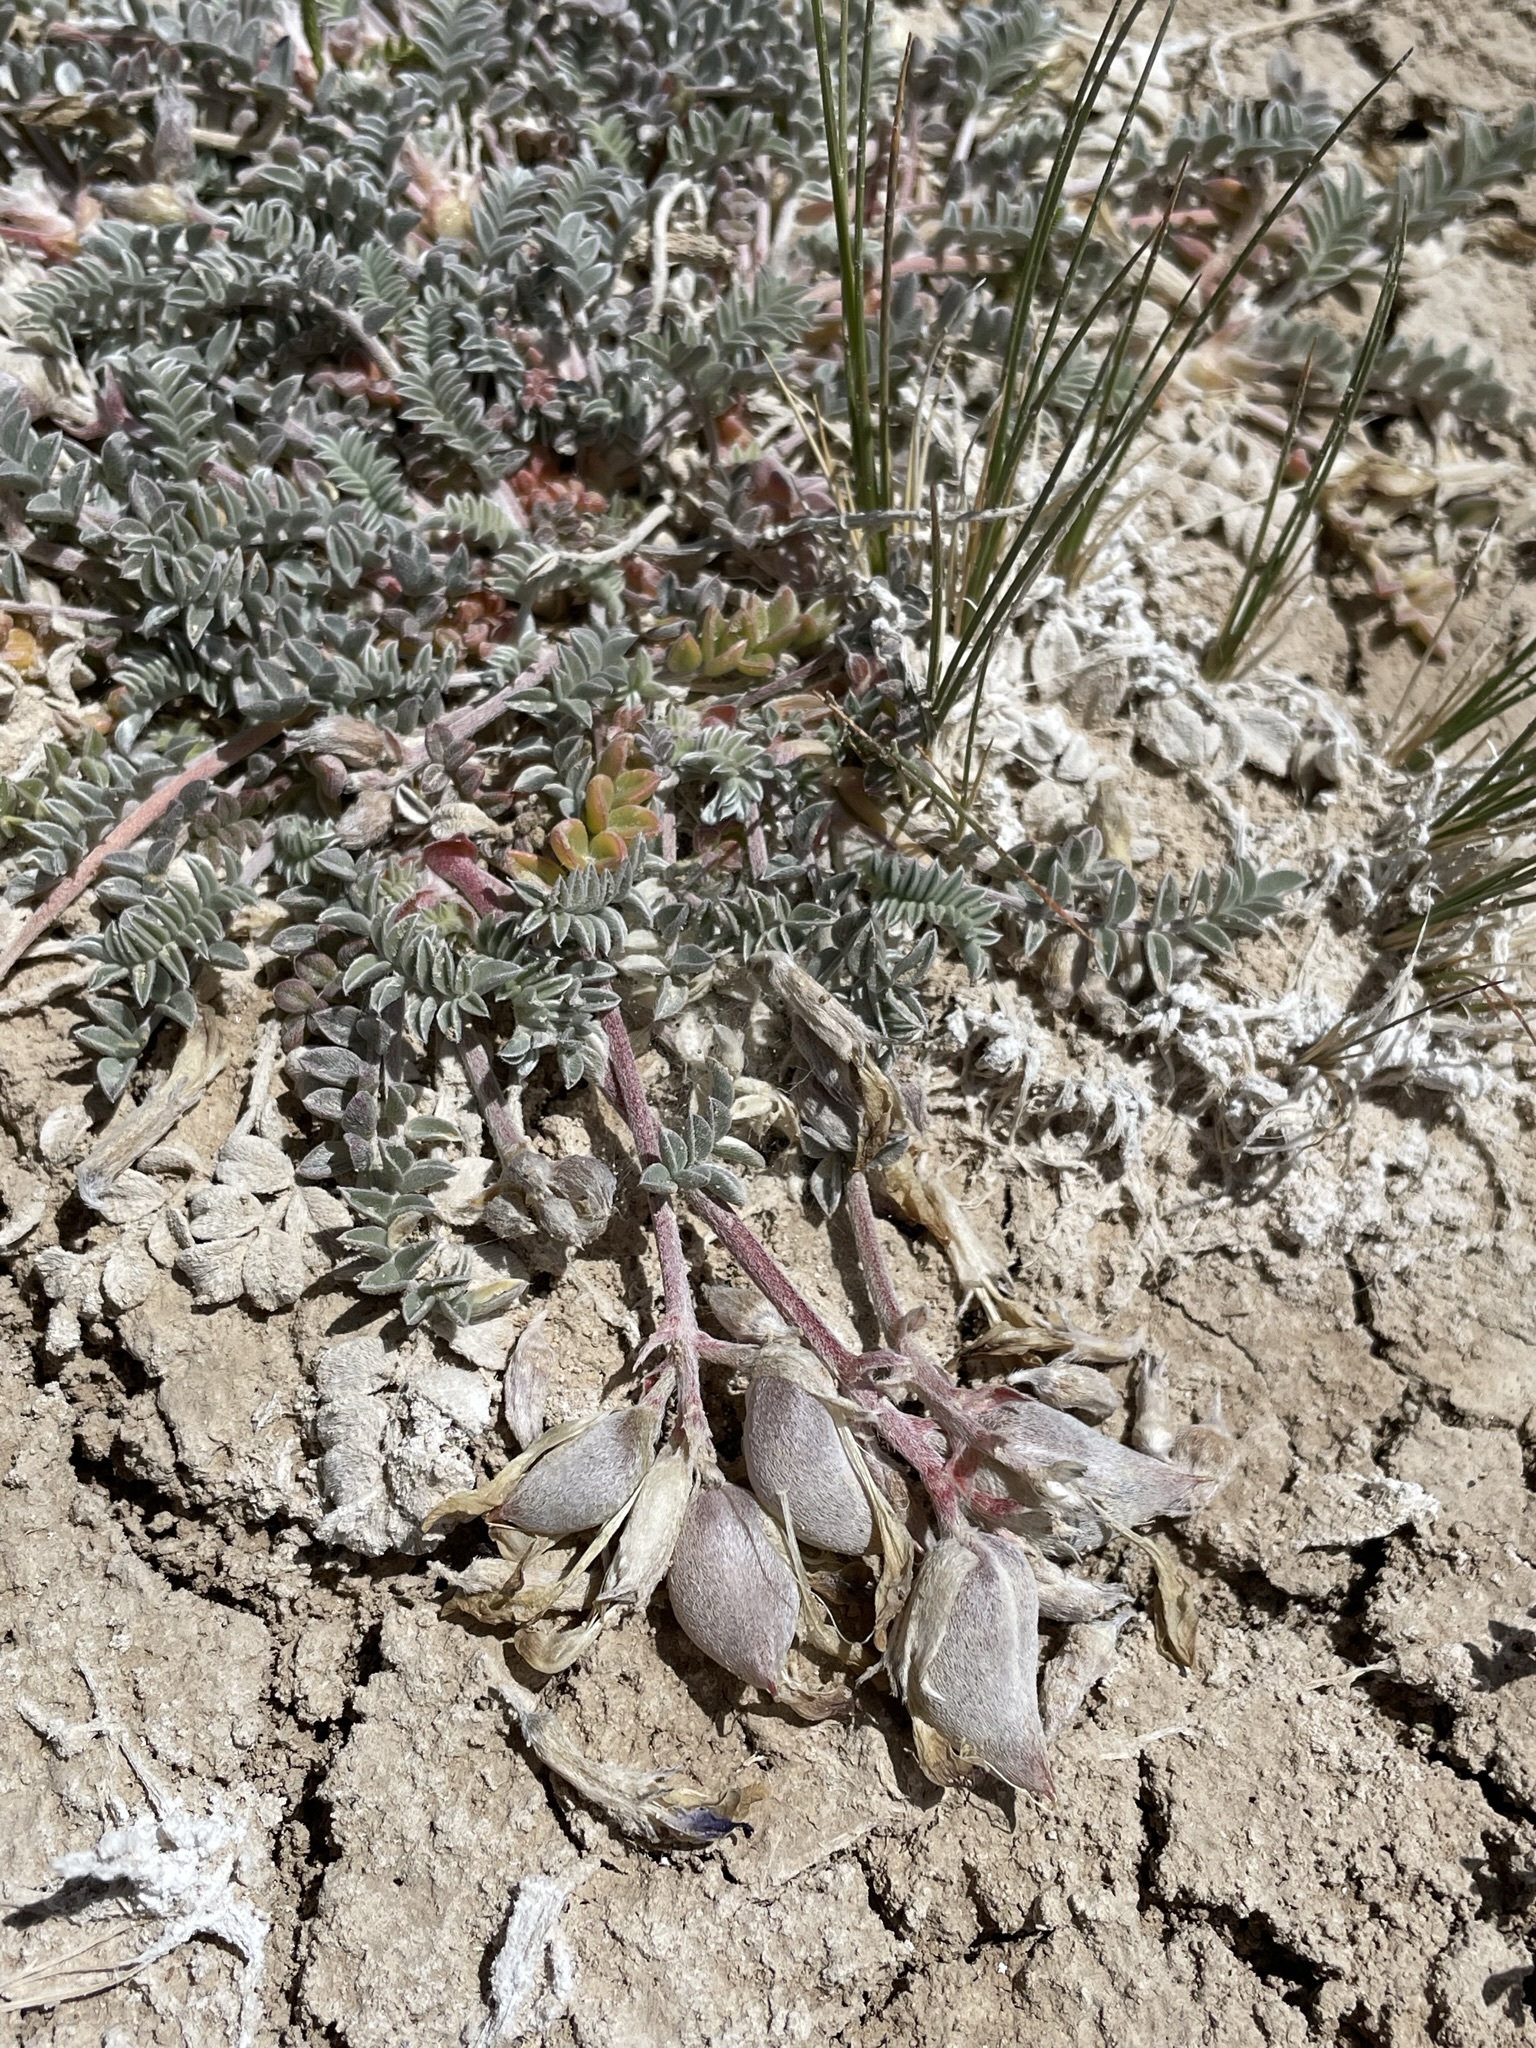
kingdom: Plantae
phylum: Tracheophyta
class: Magnoliopsida
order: Fabales
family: Fabaceae
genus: Astragalus
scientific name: Astragalus argophyllus
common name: Silverleaf milk-vetch
